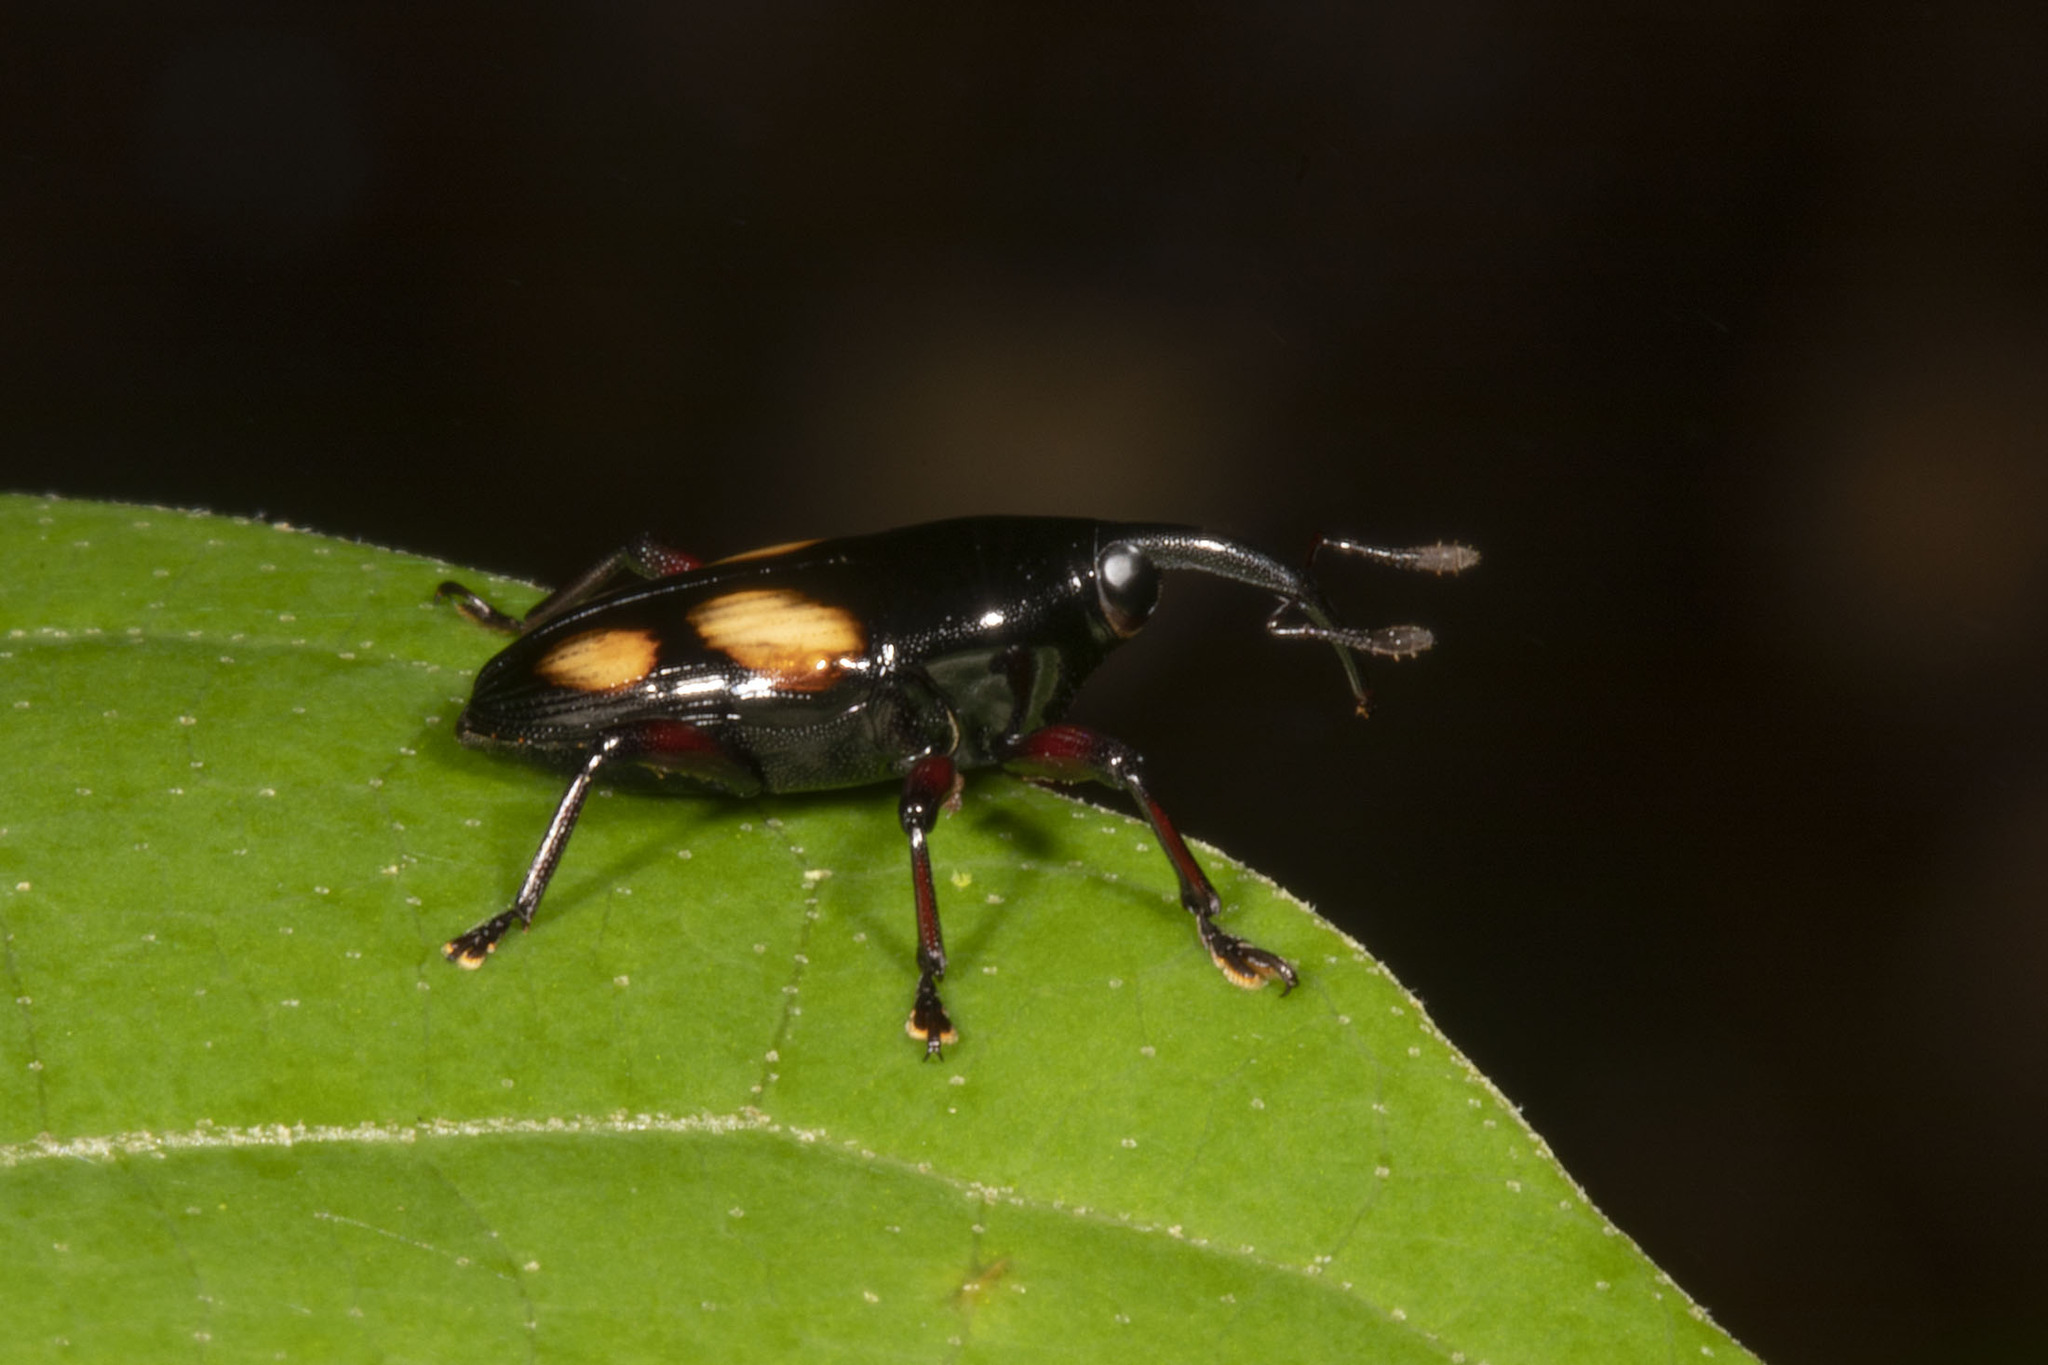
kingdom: Animalia
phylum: Arthropoda
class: Insecta
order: Coleoptera
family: Curculionidae
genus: Conoproctus
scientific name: Conoproctus quadripustulatus
